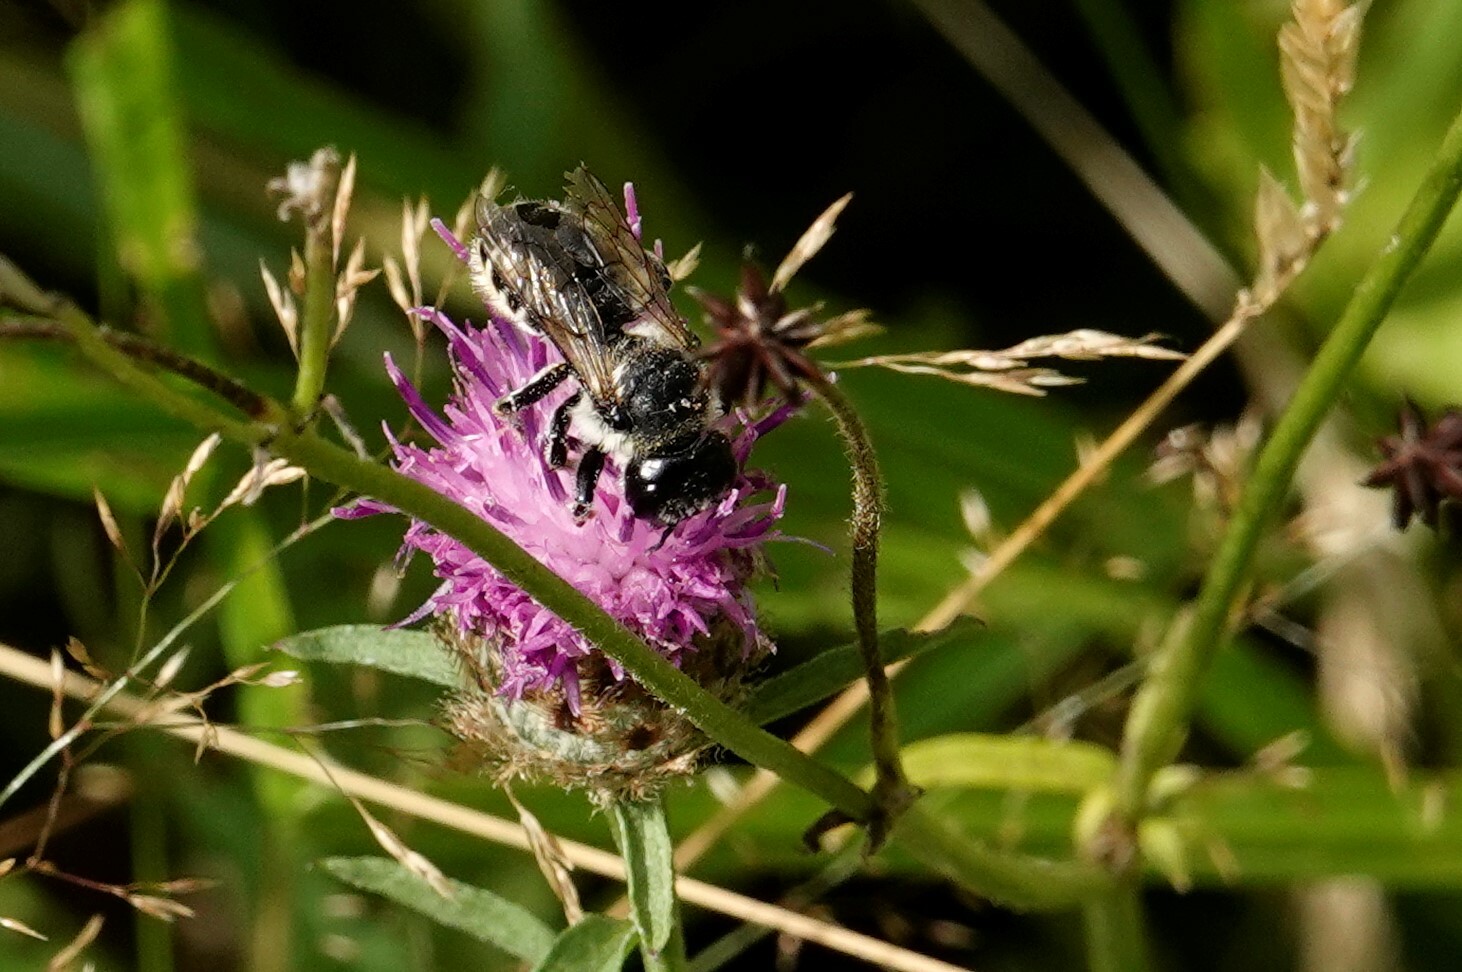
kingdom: Animalia
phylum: Arthropoda
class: Insecta
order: Hymenoptera
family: Megachilidae
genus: Megachile
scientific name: Megachile inermis
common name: Unarmed leafcutter bee
